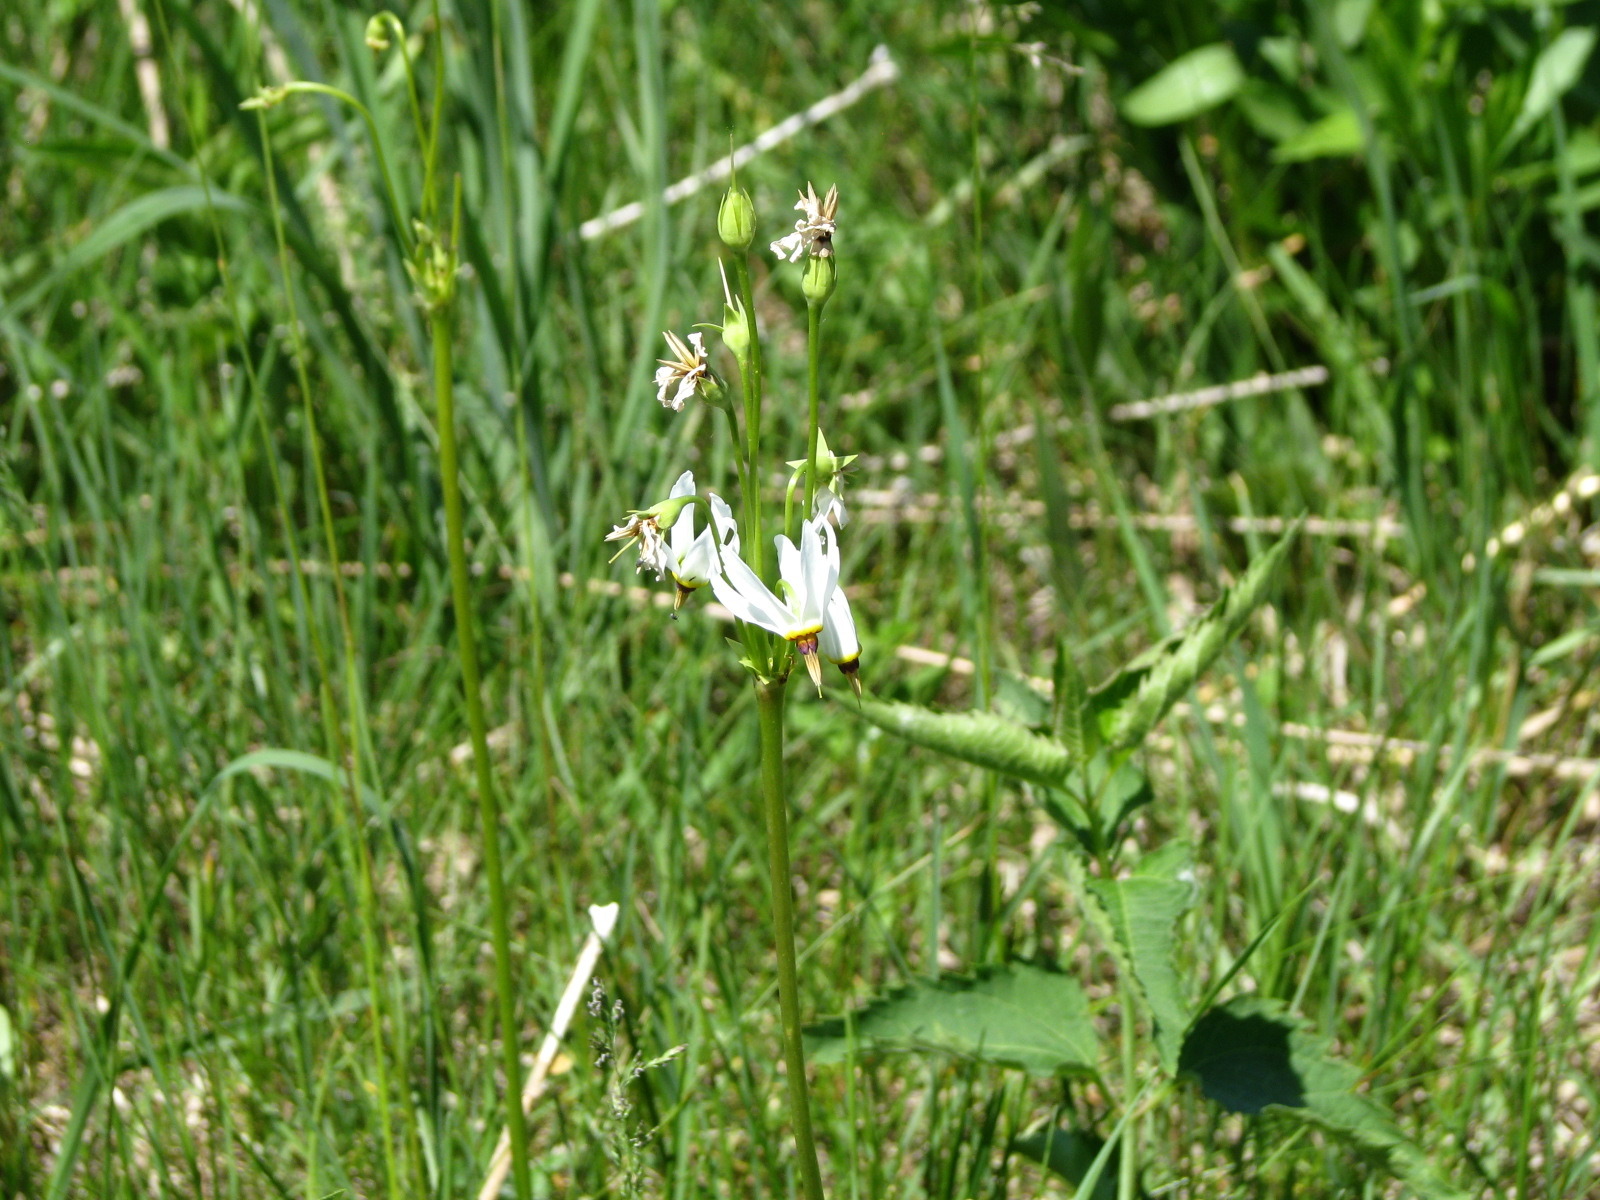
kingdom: Plantae
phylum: Tracheophyta
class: Magnoliopsida
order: Ericales
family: Primulaceae
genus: Dodecatheon
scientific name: Dodecatheon meadia
